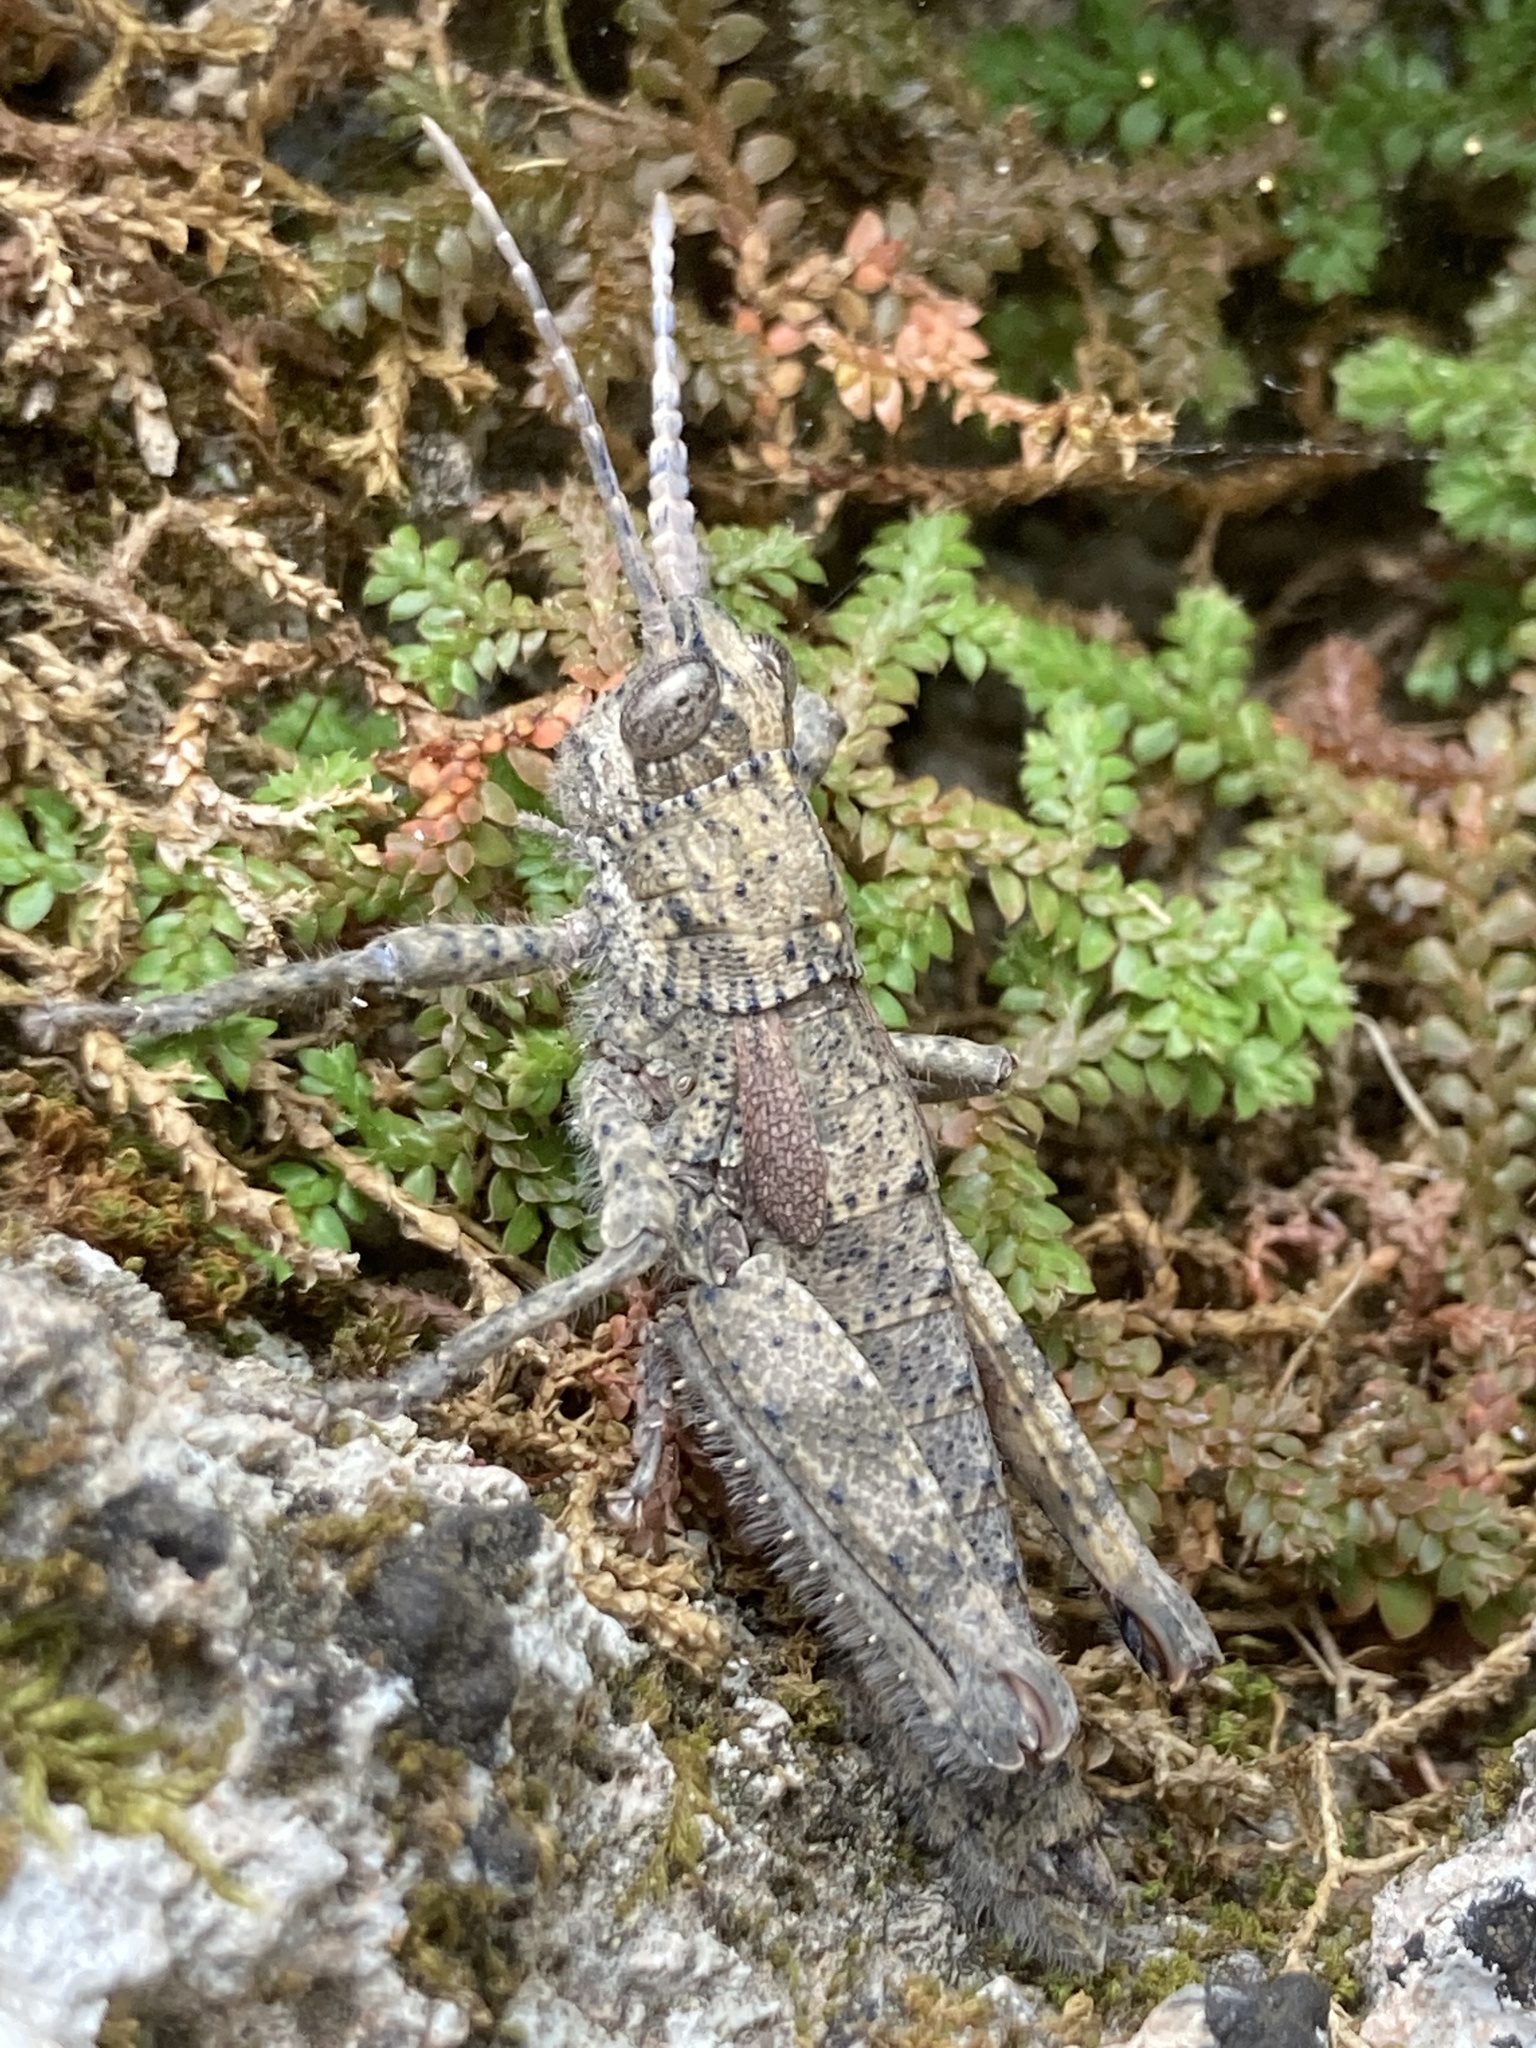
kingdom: Animalia
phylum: Arthropoda
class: Insecta
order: Orthoptera
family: Pamphagidae
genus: Orchamus
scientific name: Orchamus yersini
